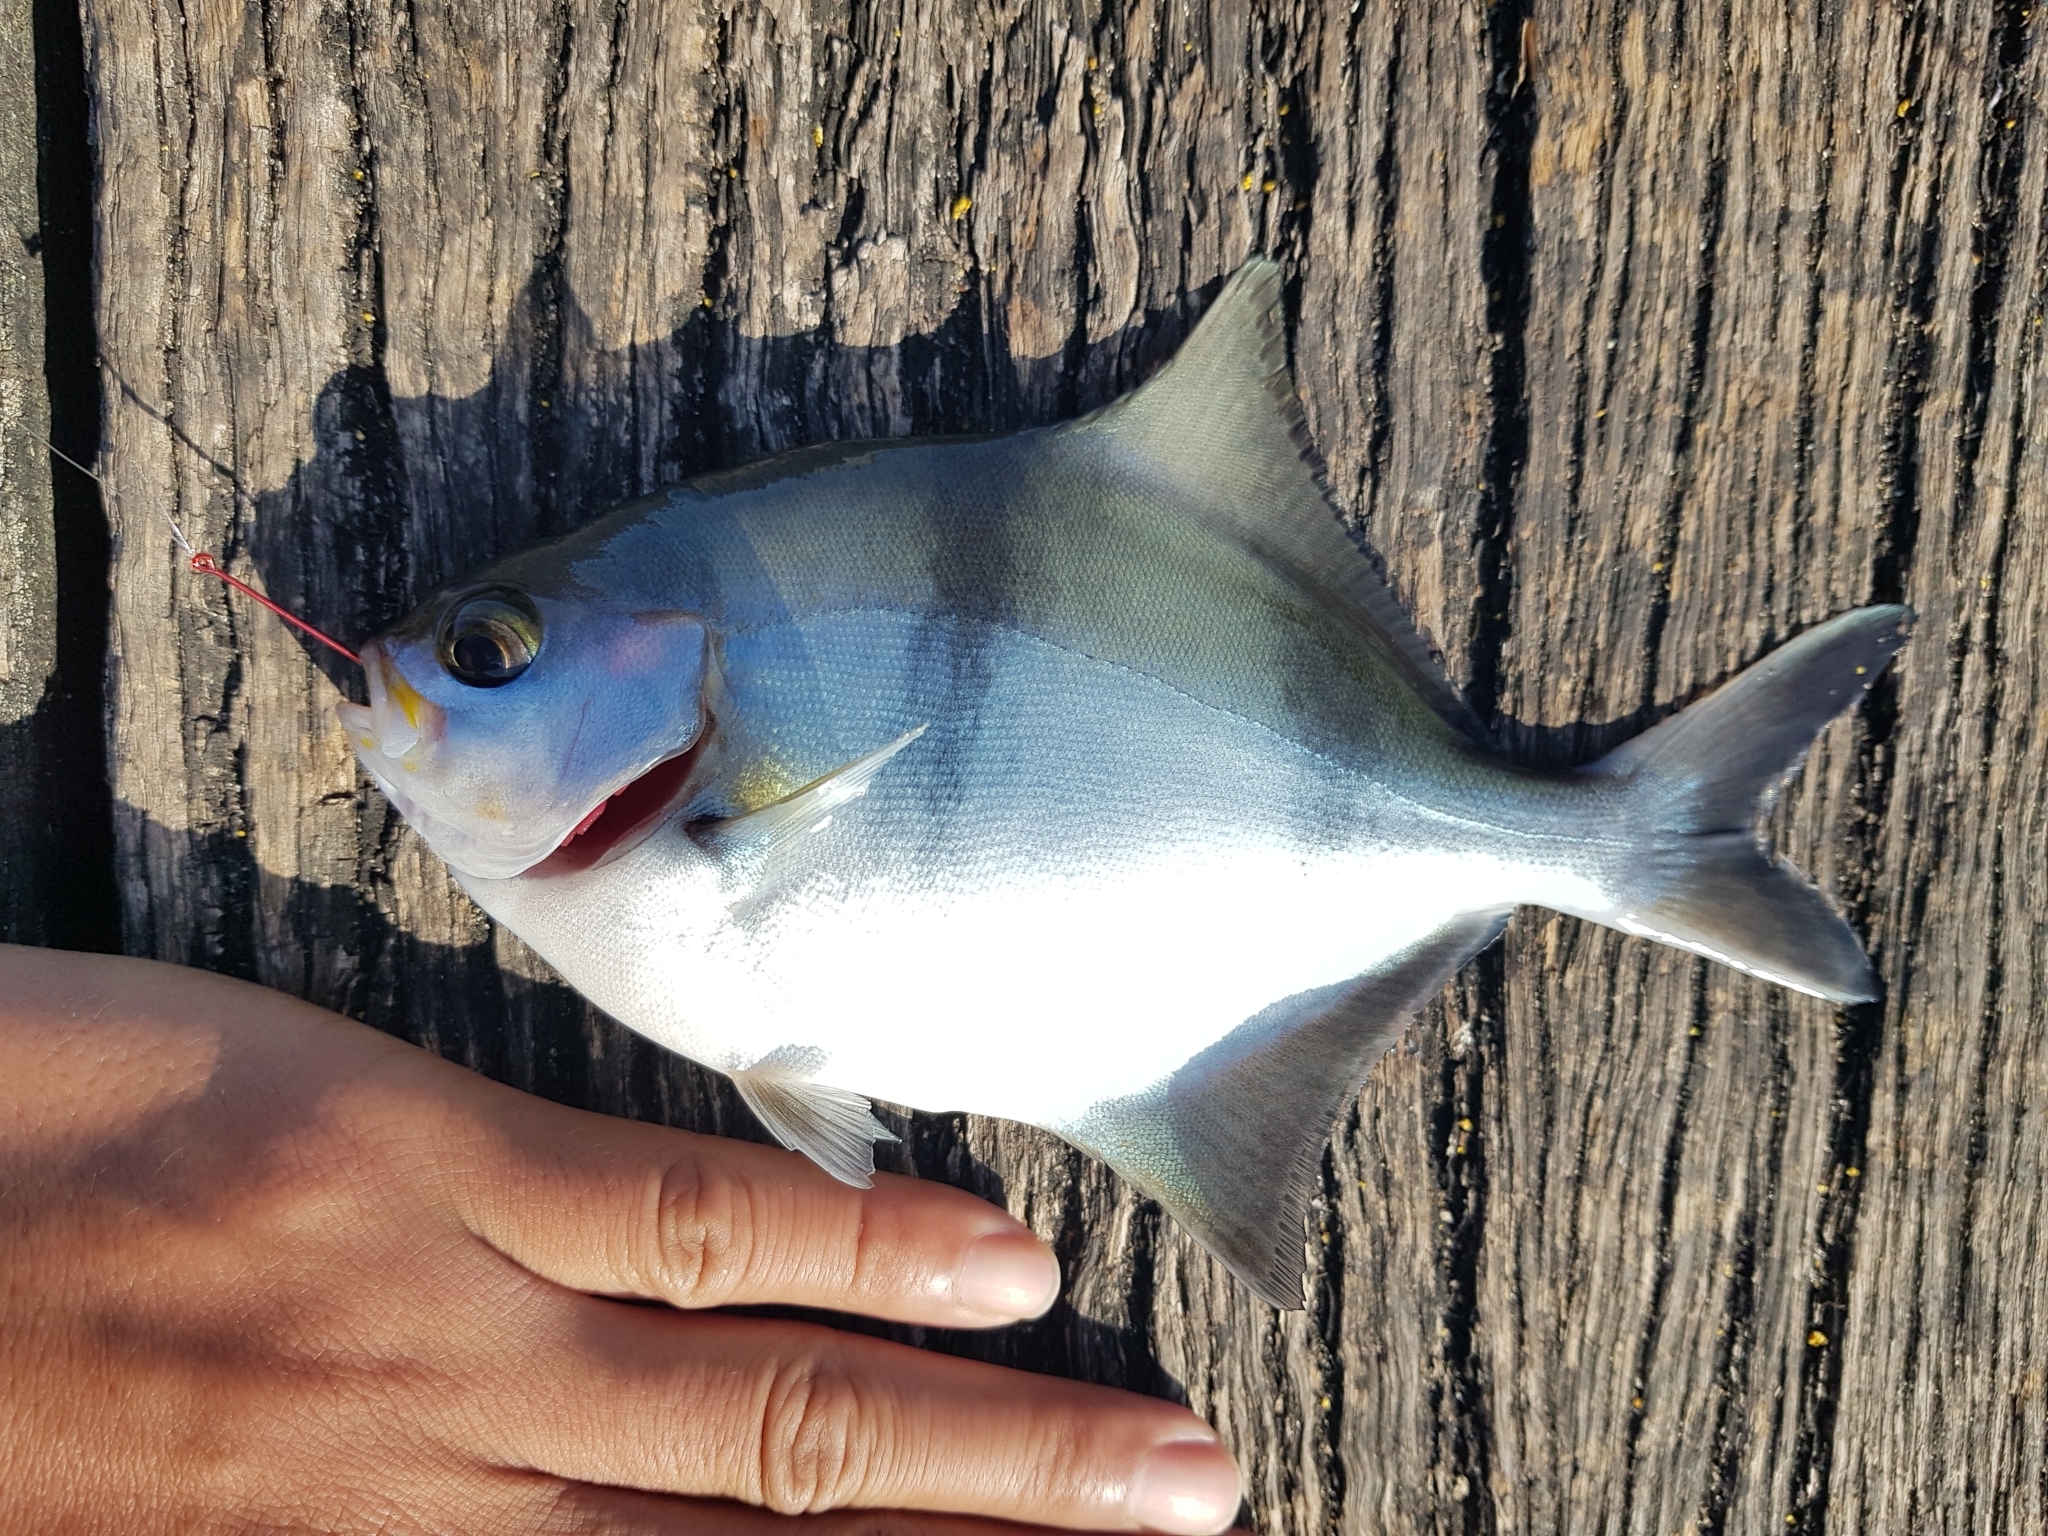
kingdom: Animalia
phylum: Chordata
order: Perciformes
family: Kyphosidae
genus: Scorpis
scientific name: Scorpis aequipinnis
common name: Sea sweep
